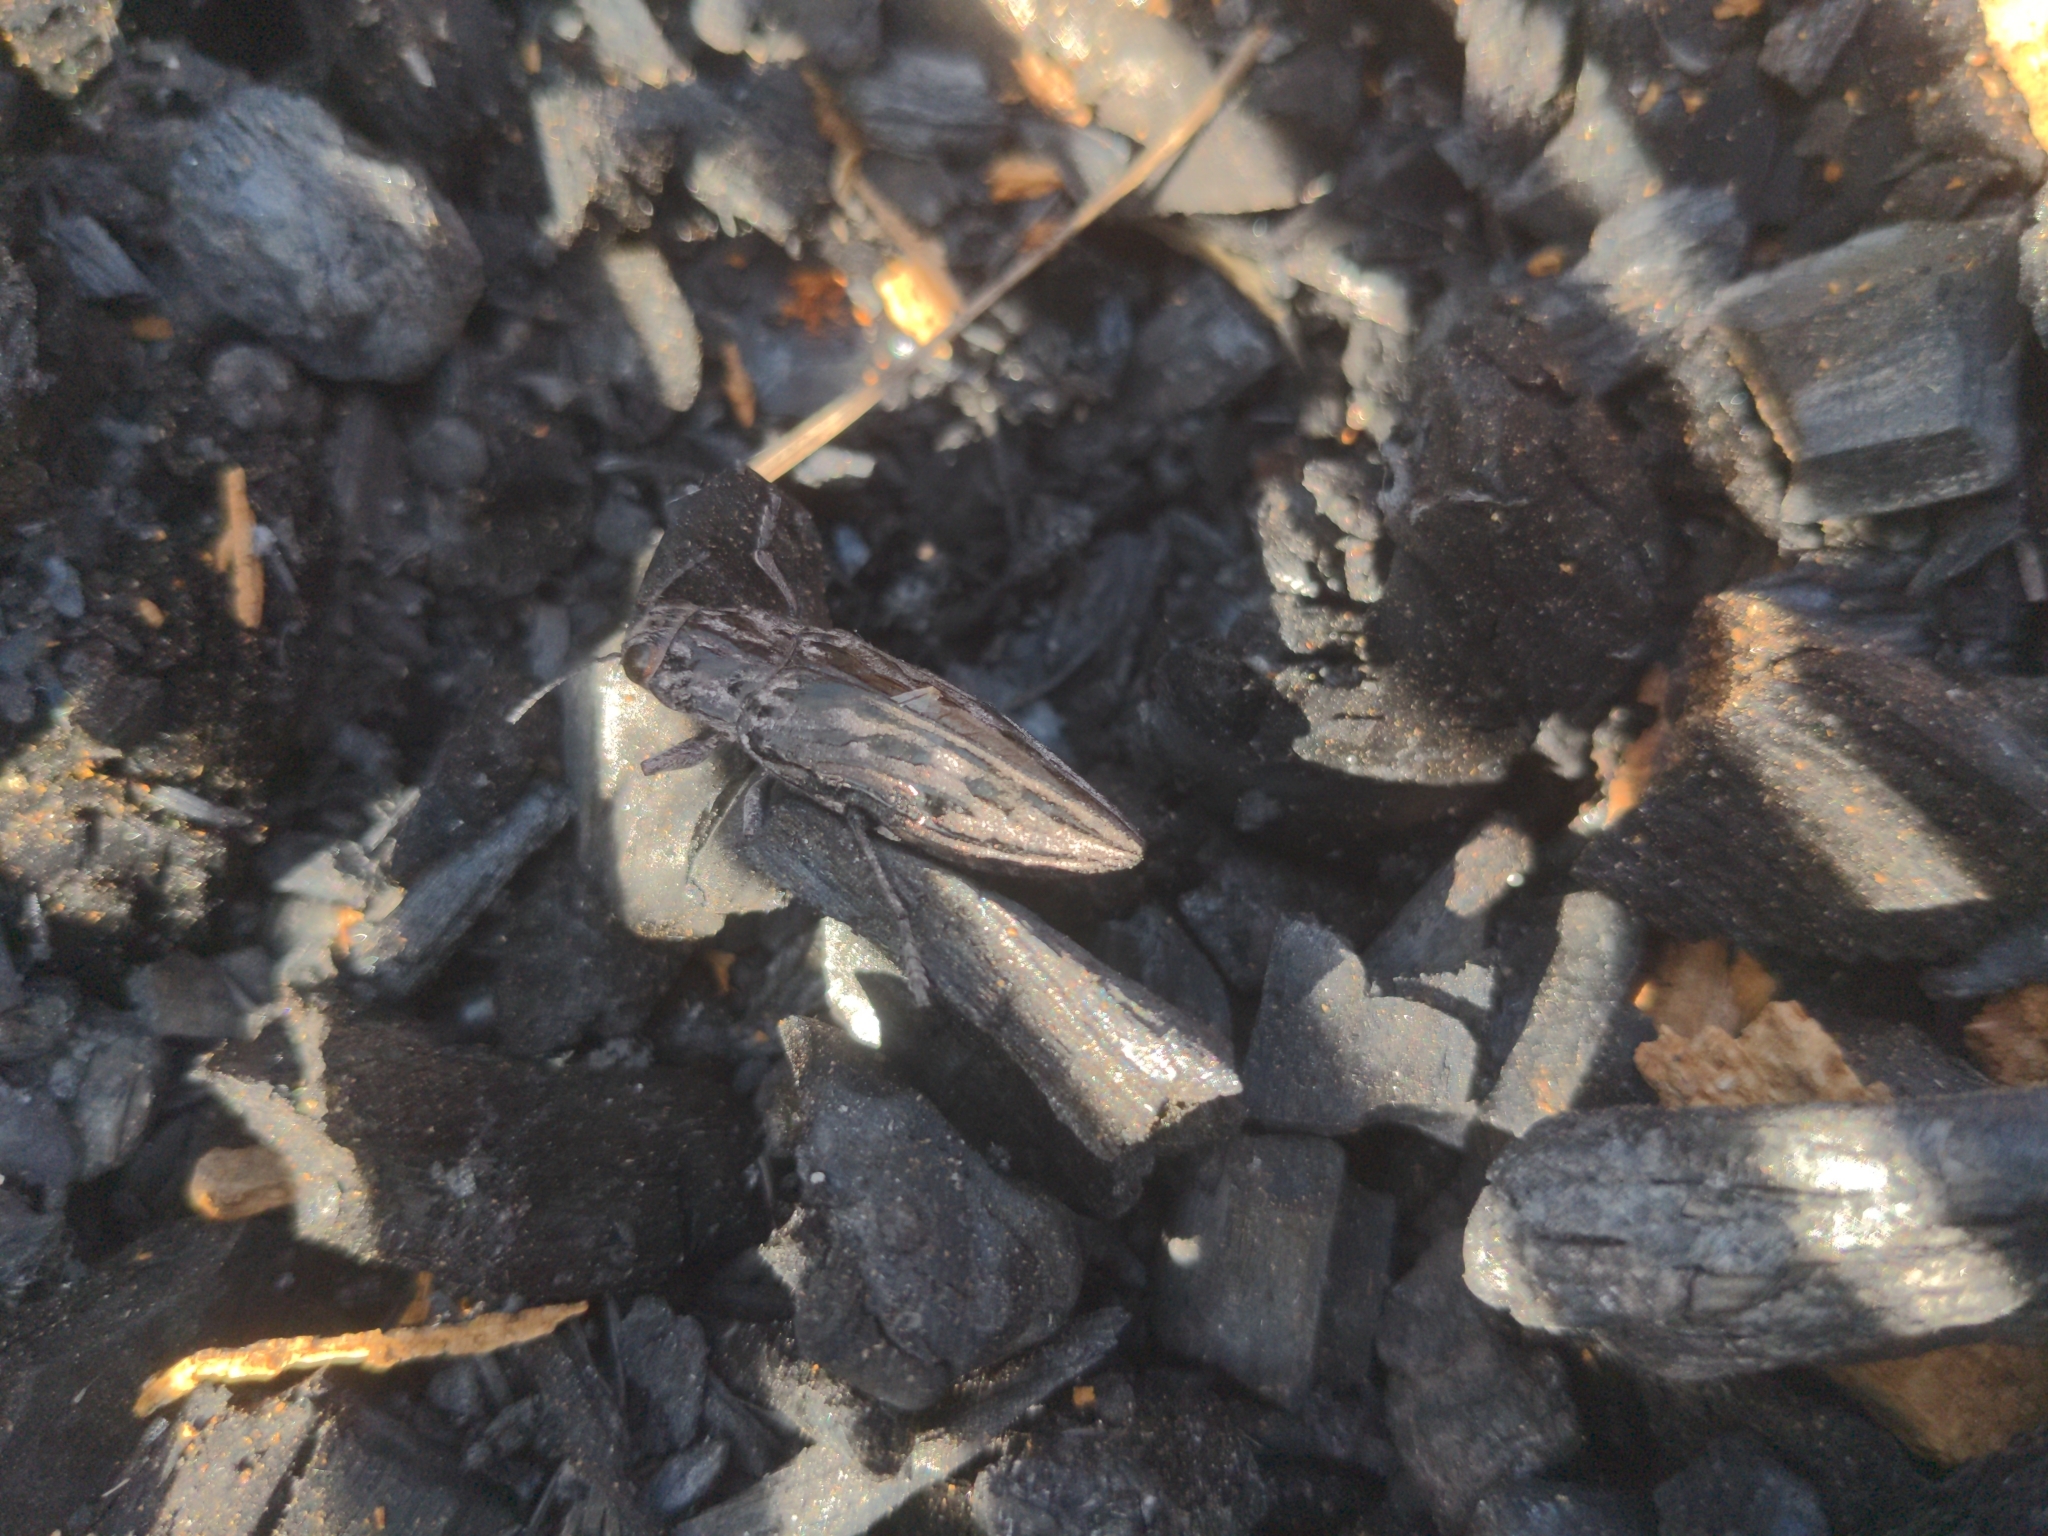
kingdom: Animalia
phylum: Arthropoda
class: Insecta
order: Coleoptera
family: Buprestidae
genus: Chalcophora
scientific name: Chalcophora angulicollis
